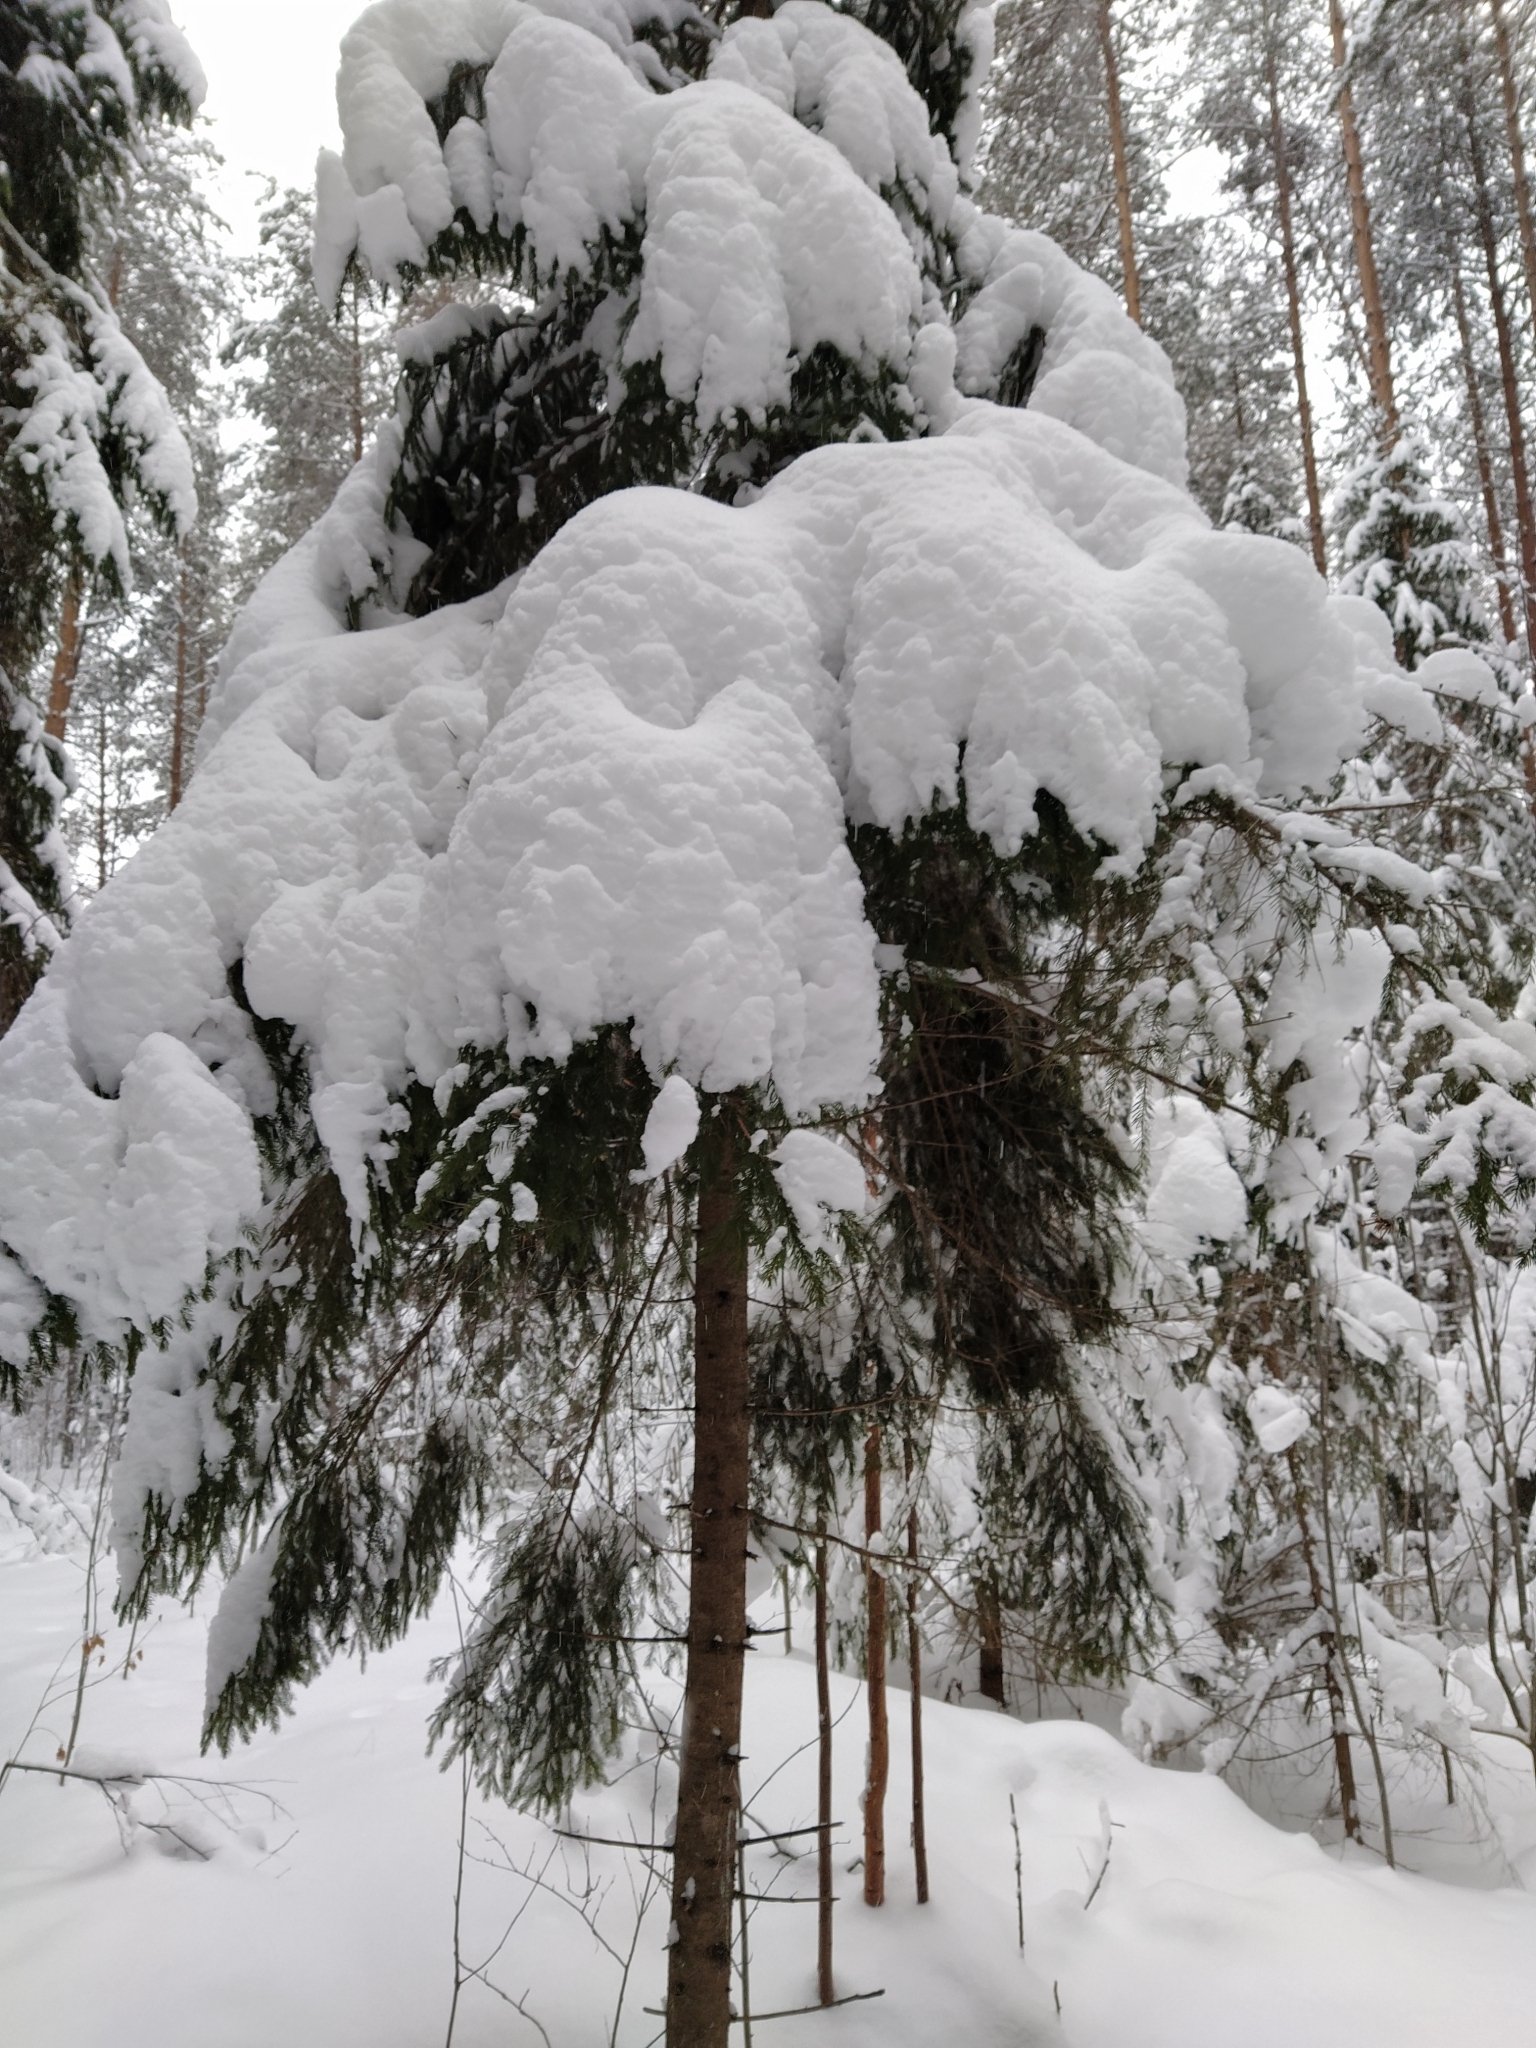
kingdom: Plantae
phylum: Tracheophyta
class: Pinopsida
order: Pinales
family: Pinaceae
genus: Picea
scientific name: Picea abies
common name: Norway spruce
